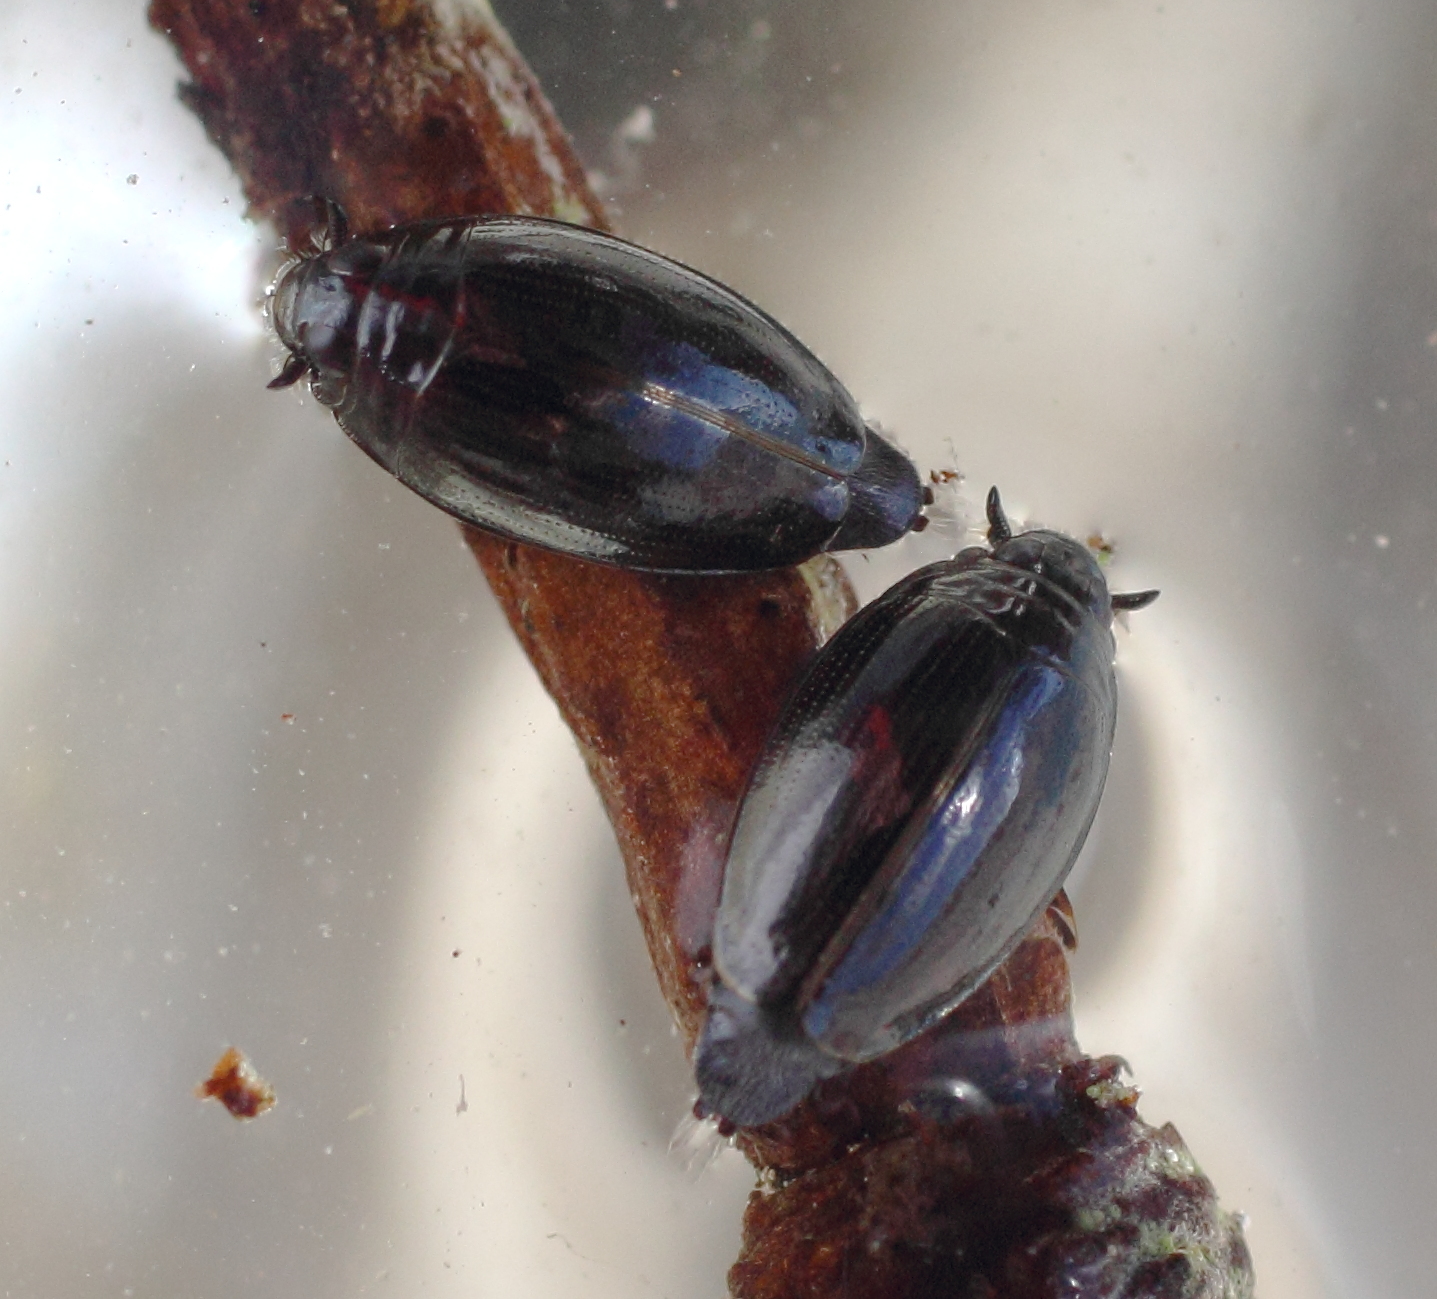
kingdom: Animalia
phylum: Arthropoda
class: Insecta
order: Coleoptera
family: Gyrinidae
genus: Gyrinus
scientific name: Gyrinus
